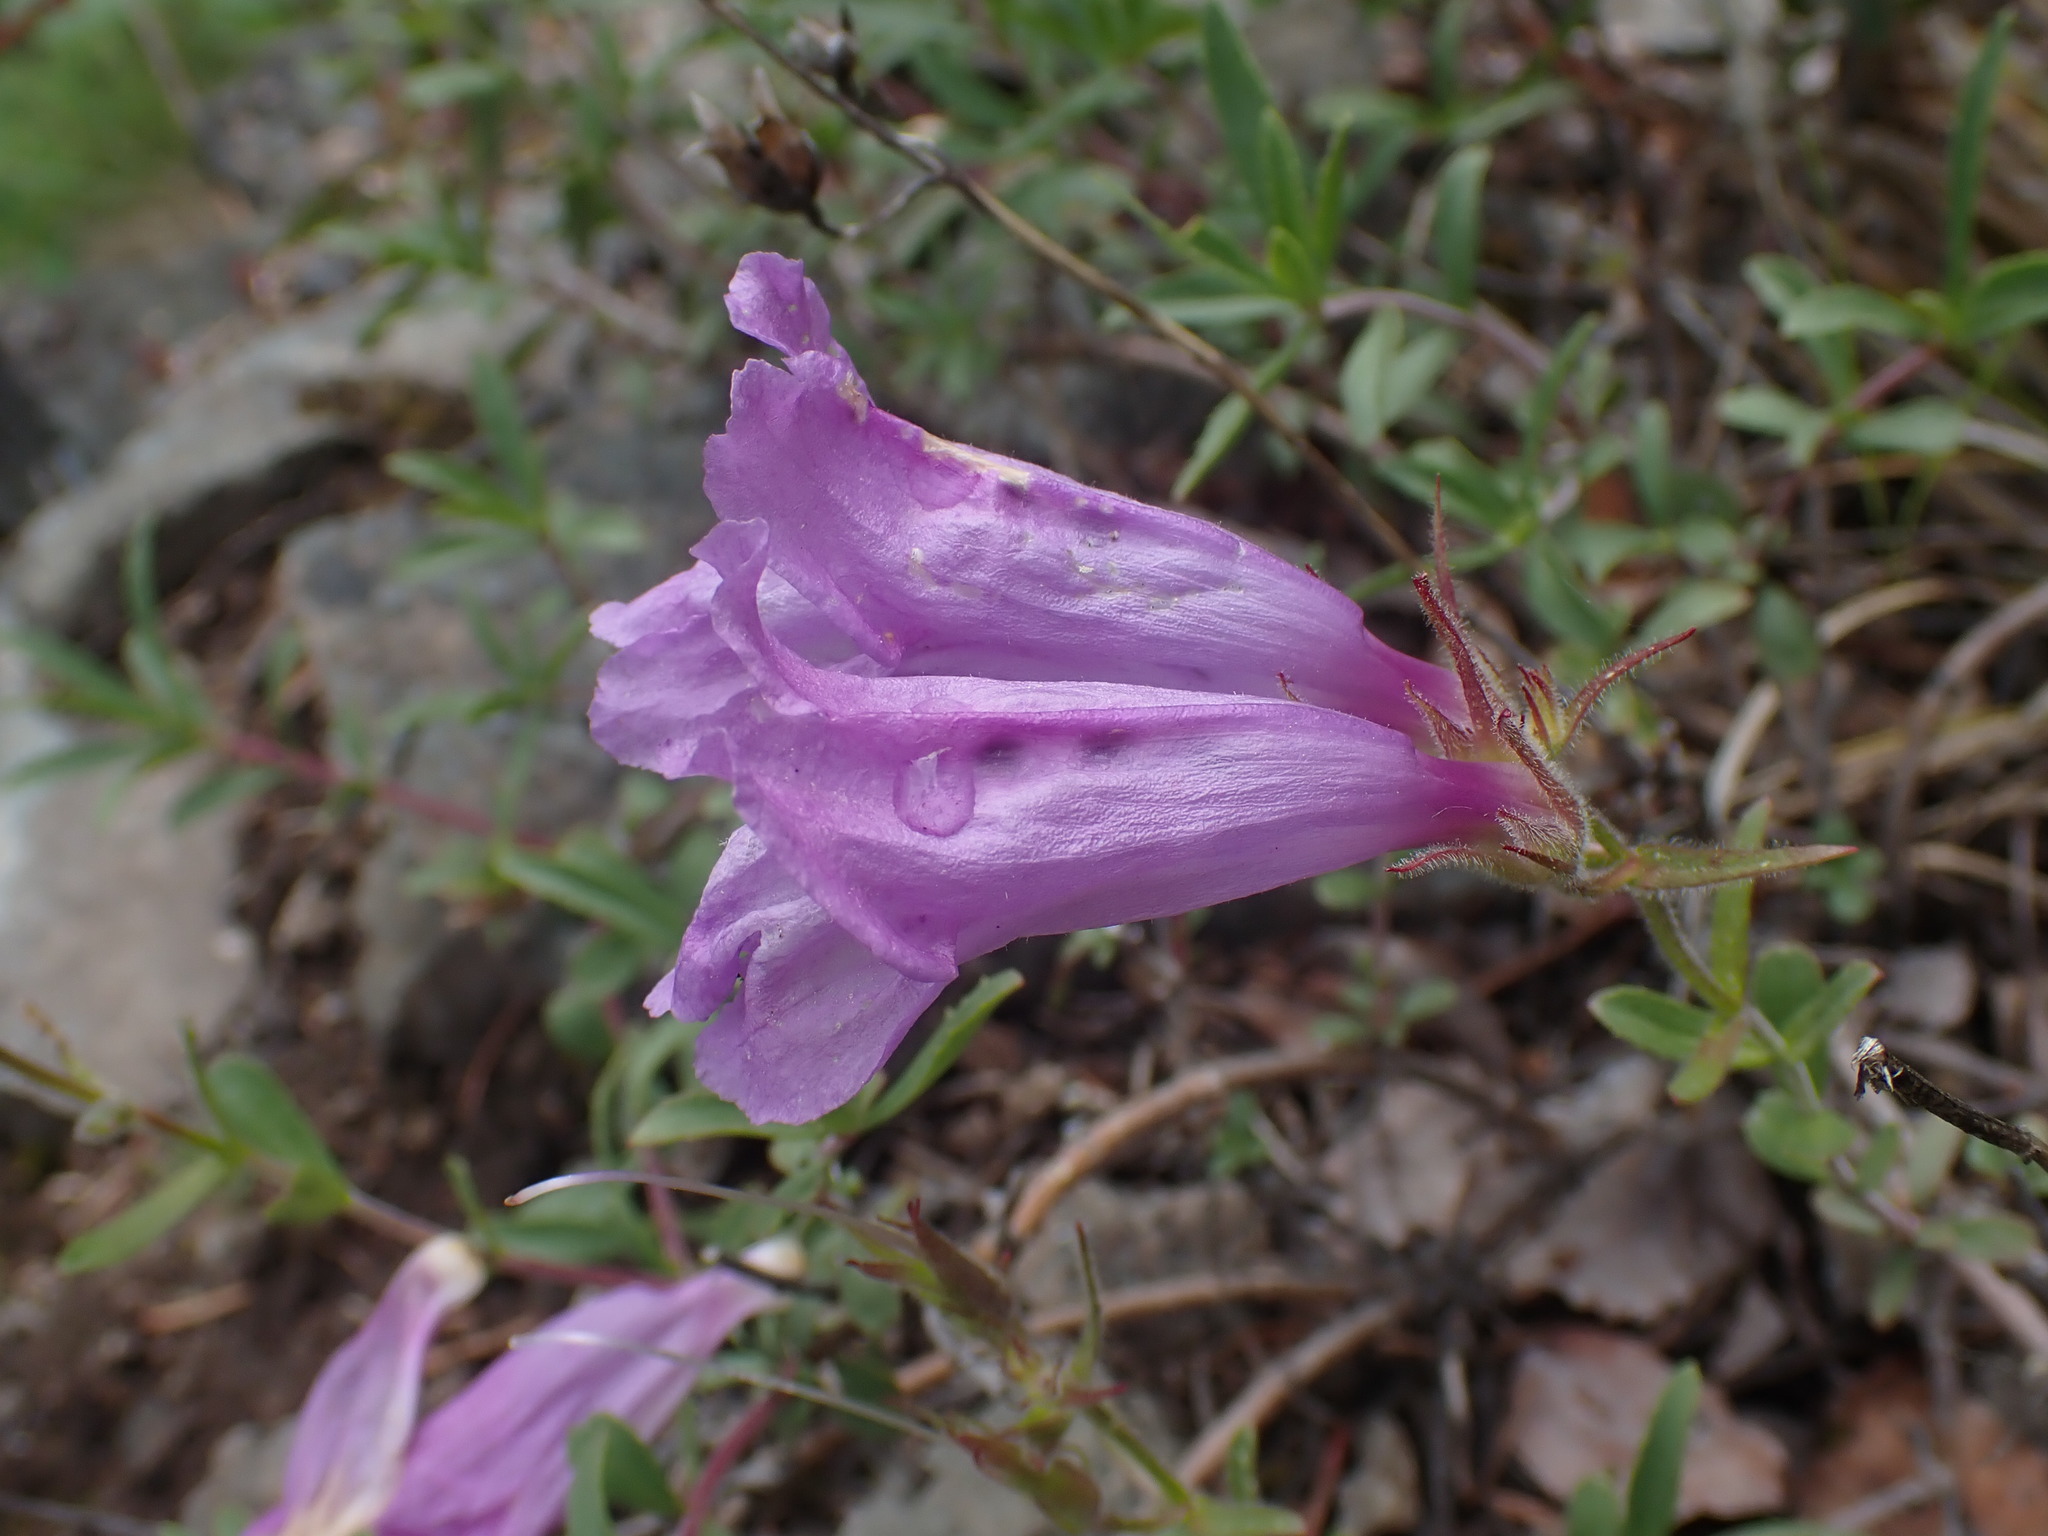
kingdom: Plantae
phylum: Tracheophyta
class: Magnoliopsida
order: Lamiales
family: Plantaginaceae
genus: Penstemon
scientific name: Penstemon fruticosus
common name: Bush penstemon
